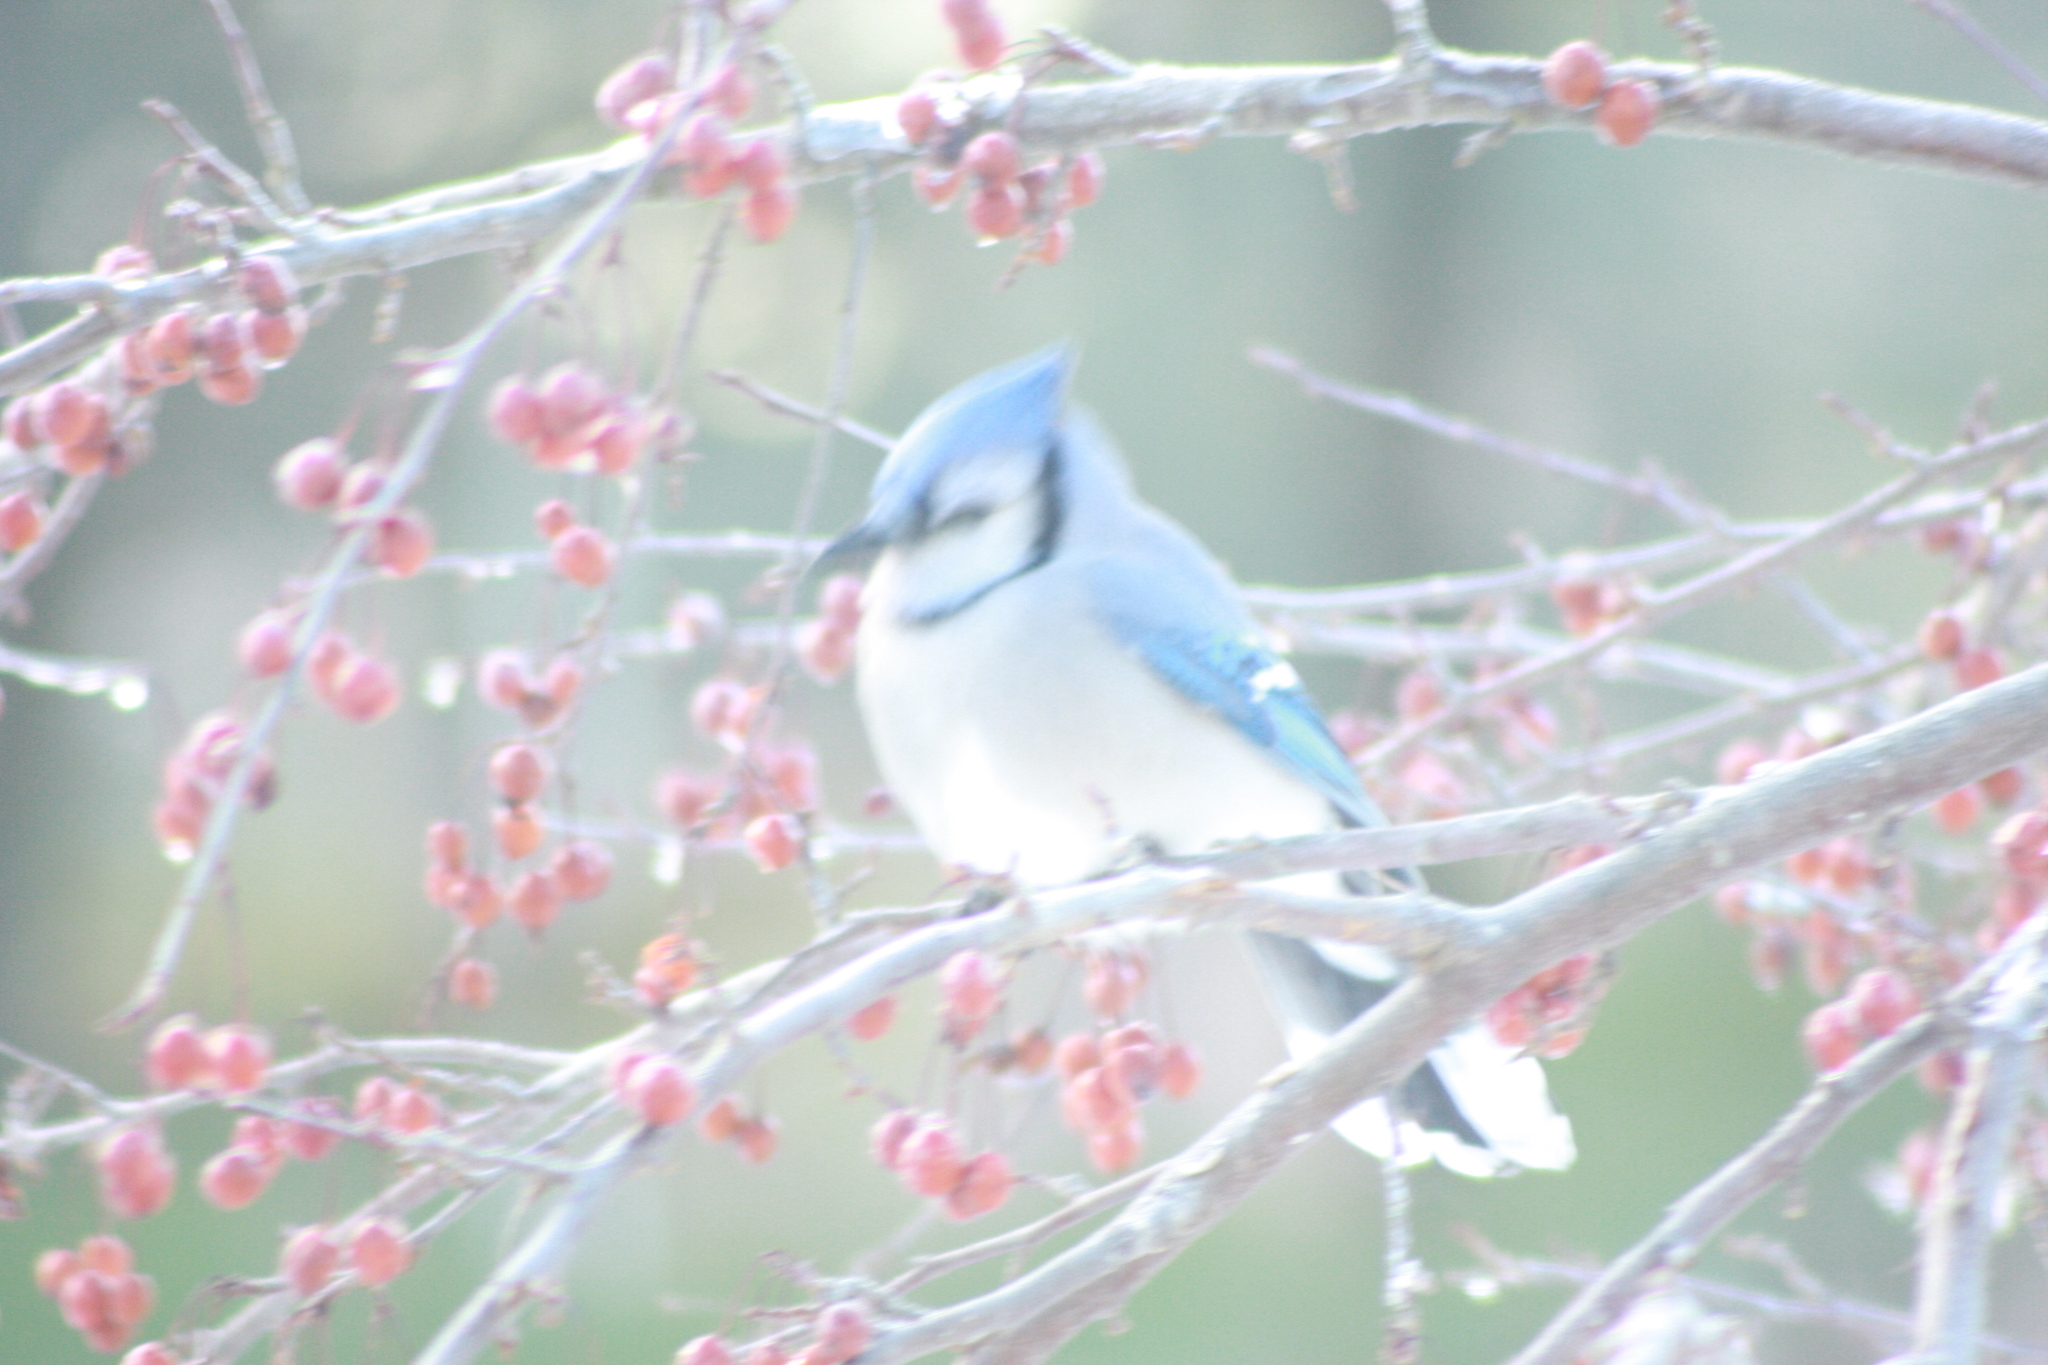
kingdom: Animalia
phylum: Chordata
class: Aves
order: Passeriformes
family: Corvidae
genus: Cyanocitta
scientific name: Cyanocitta cristata
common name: Blue jay
